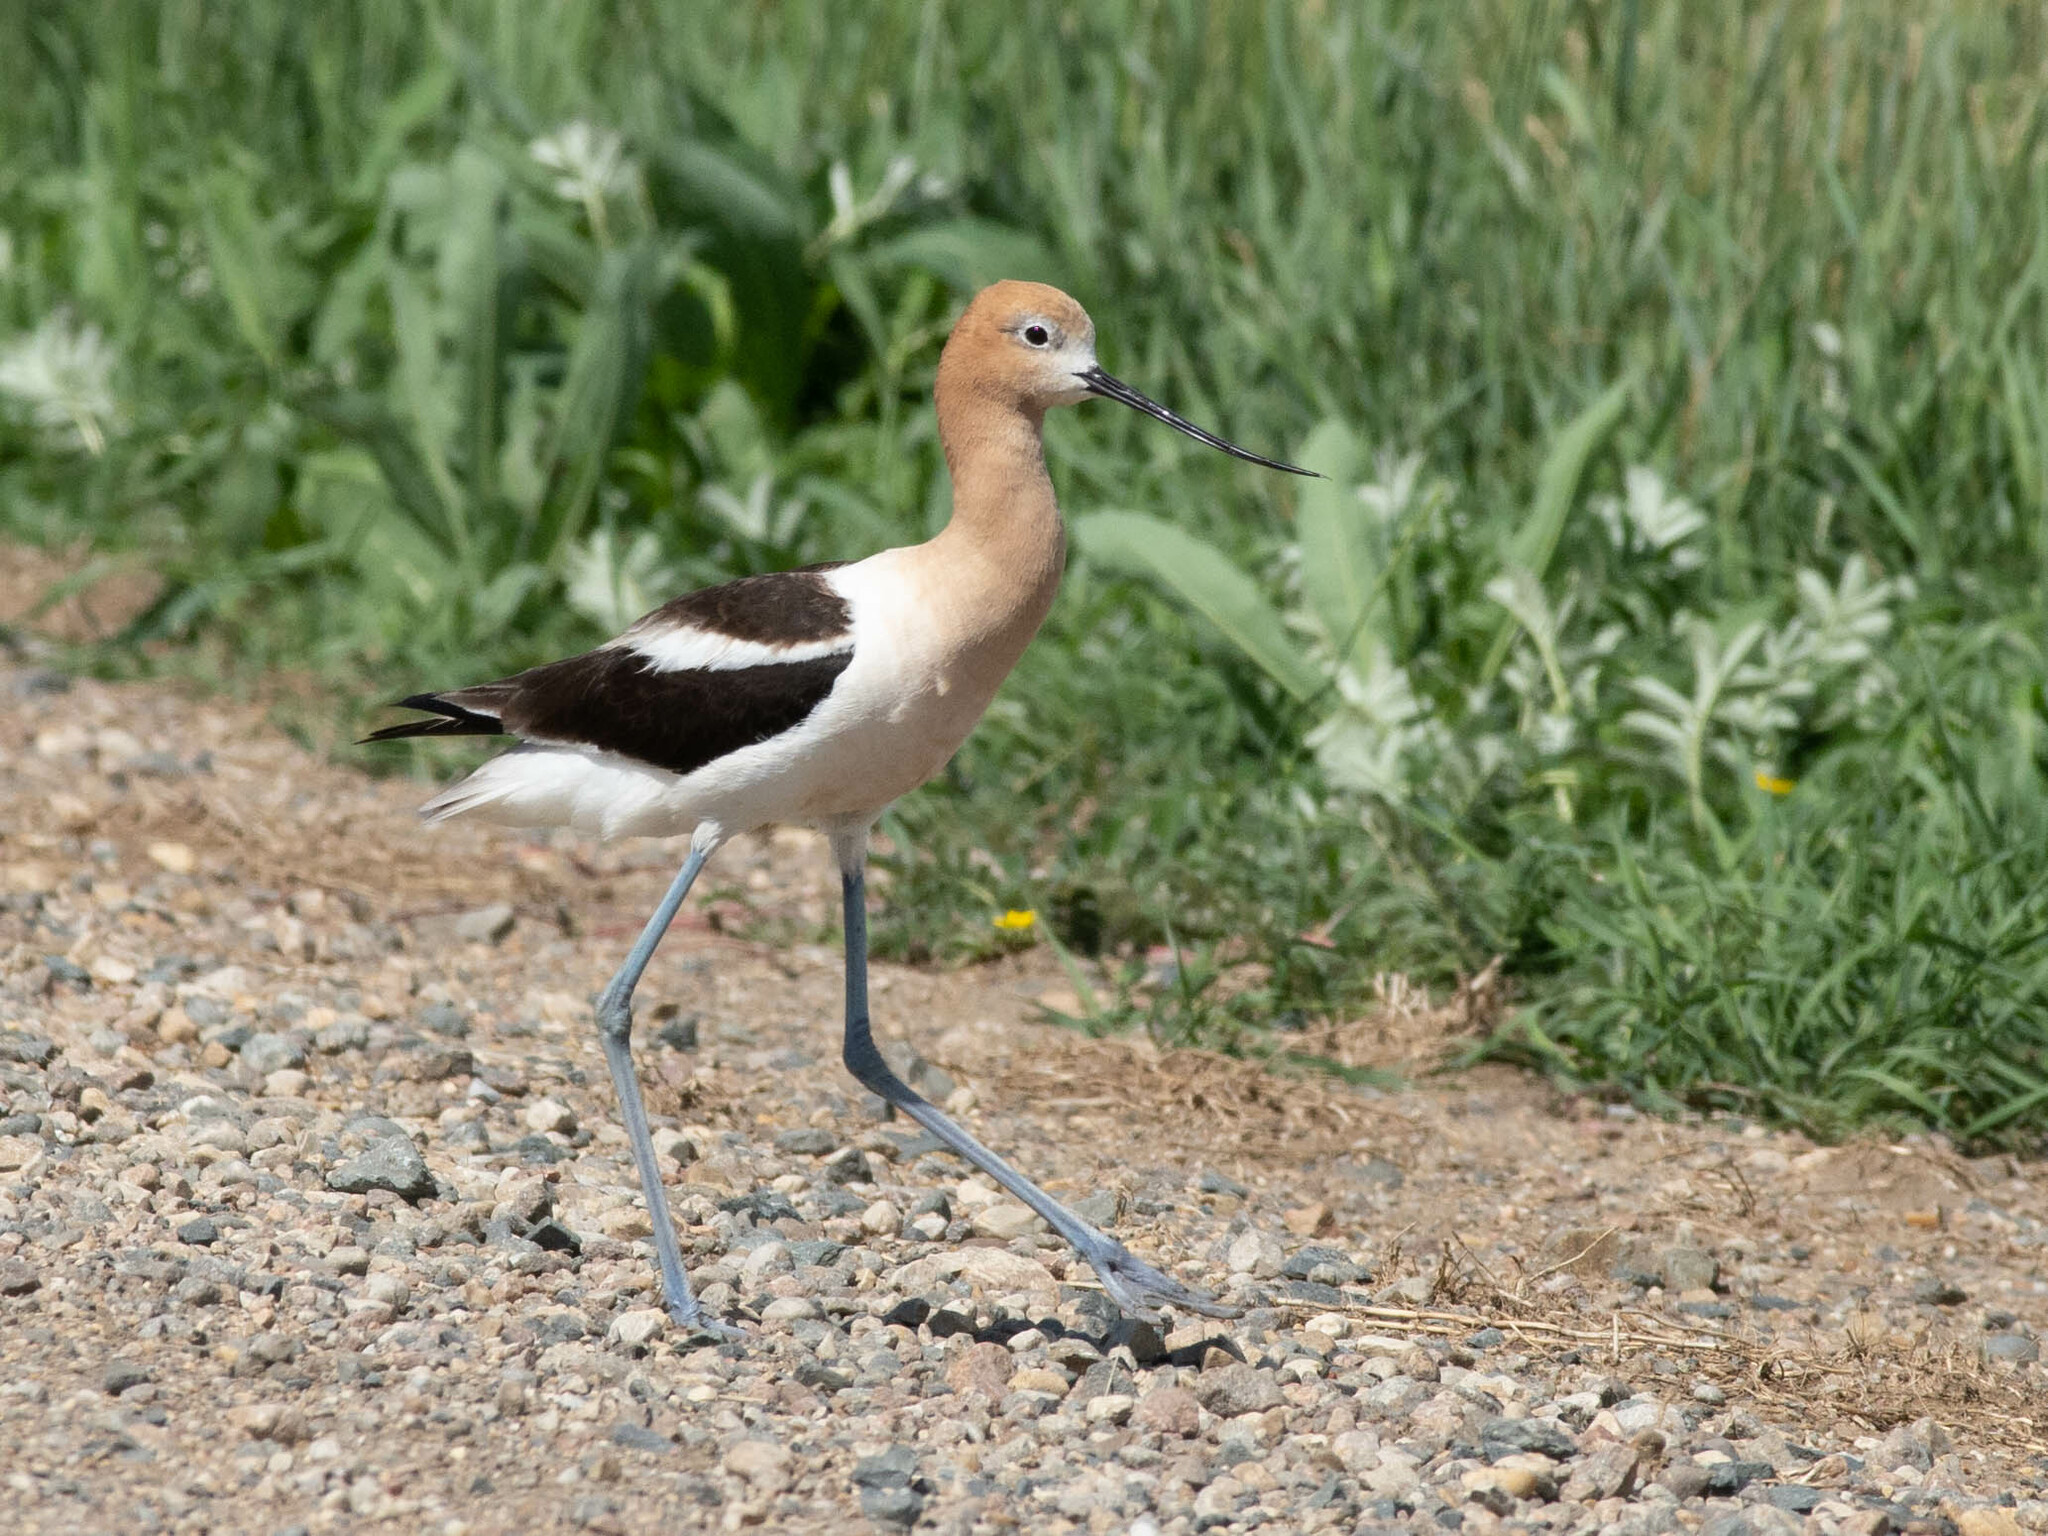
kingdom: Animalia
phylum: Chordata
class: Aves
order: Charadriiformes
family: Recurvirostridae
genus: Recurvirostra
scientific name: Recurvirostra americana
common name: American avocet
